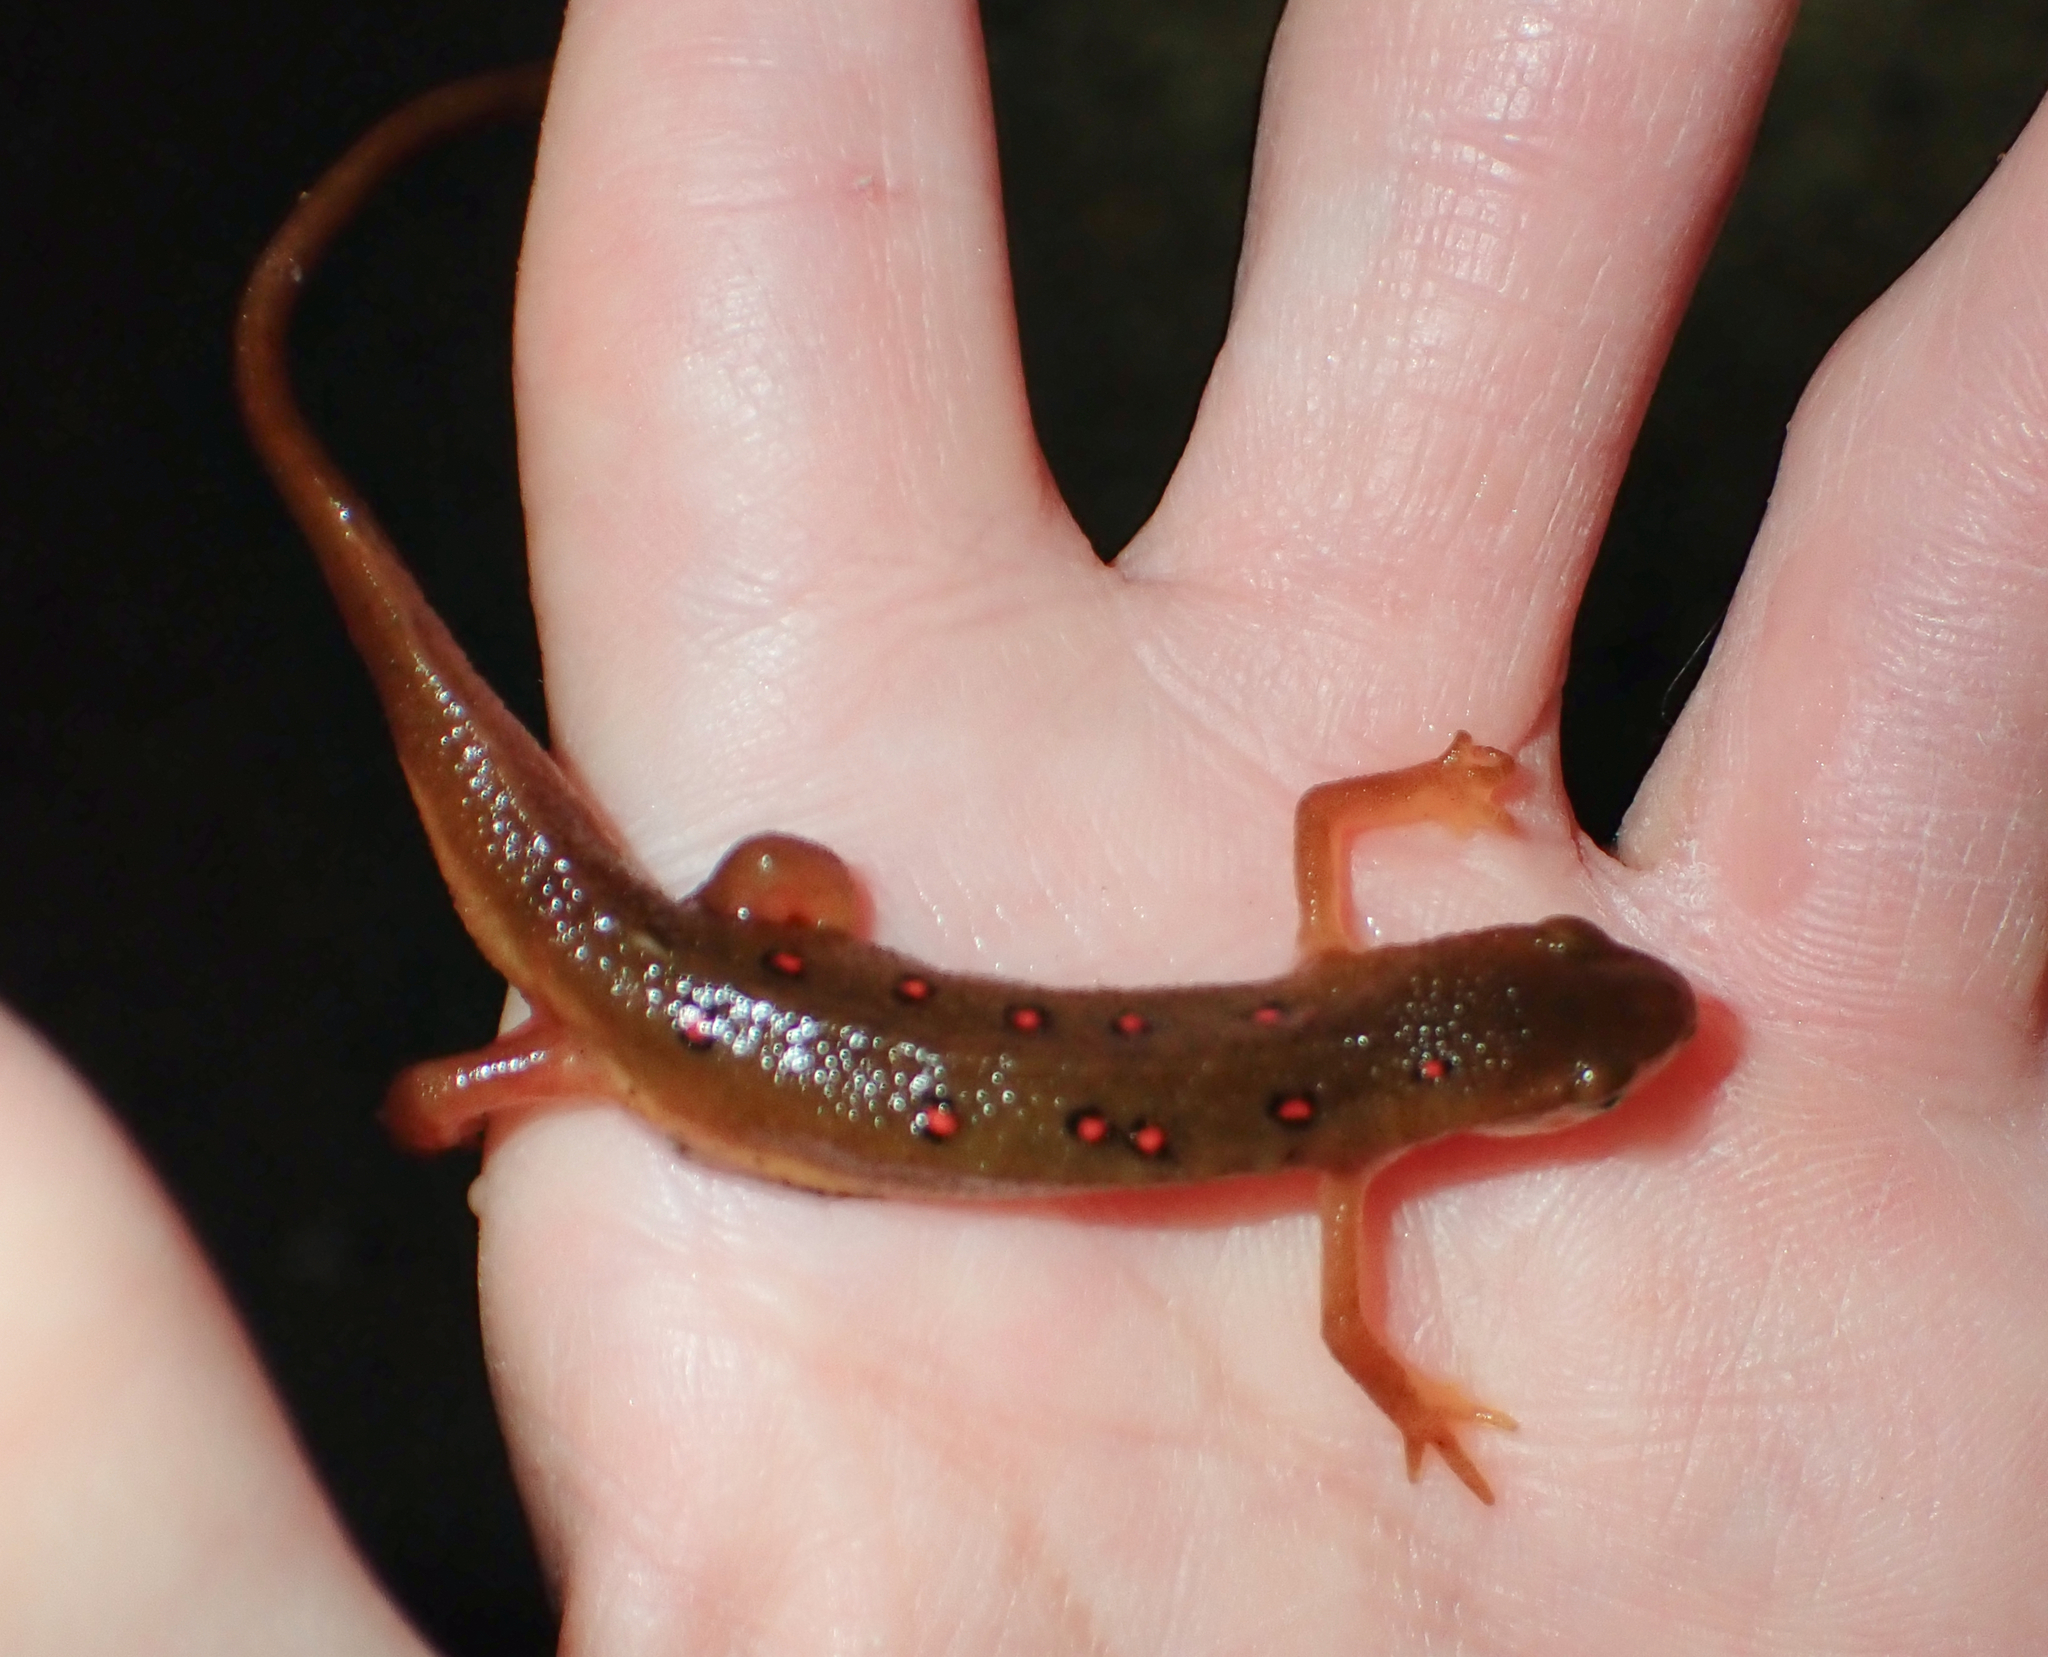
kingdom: Animalia
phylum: Chordata
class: Amphibia
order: Caudata
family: Salamandridae
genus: Notophthalmus
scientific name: Notophthalmus viridescens
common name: Eastern newt
